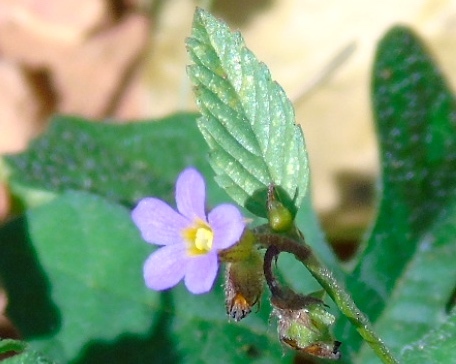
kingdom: Plantae
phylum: Tracheophyta
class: Magnoliopsida
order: Malvales
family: Malvaceae
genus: Melochia
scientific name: Melochia pyramidata
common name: Pyramidflower
